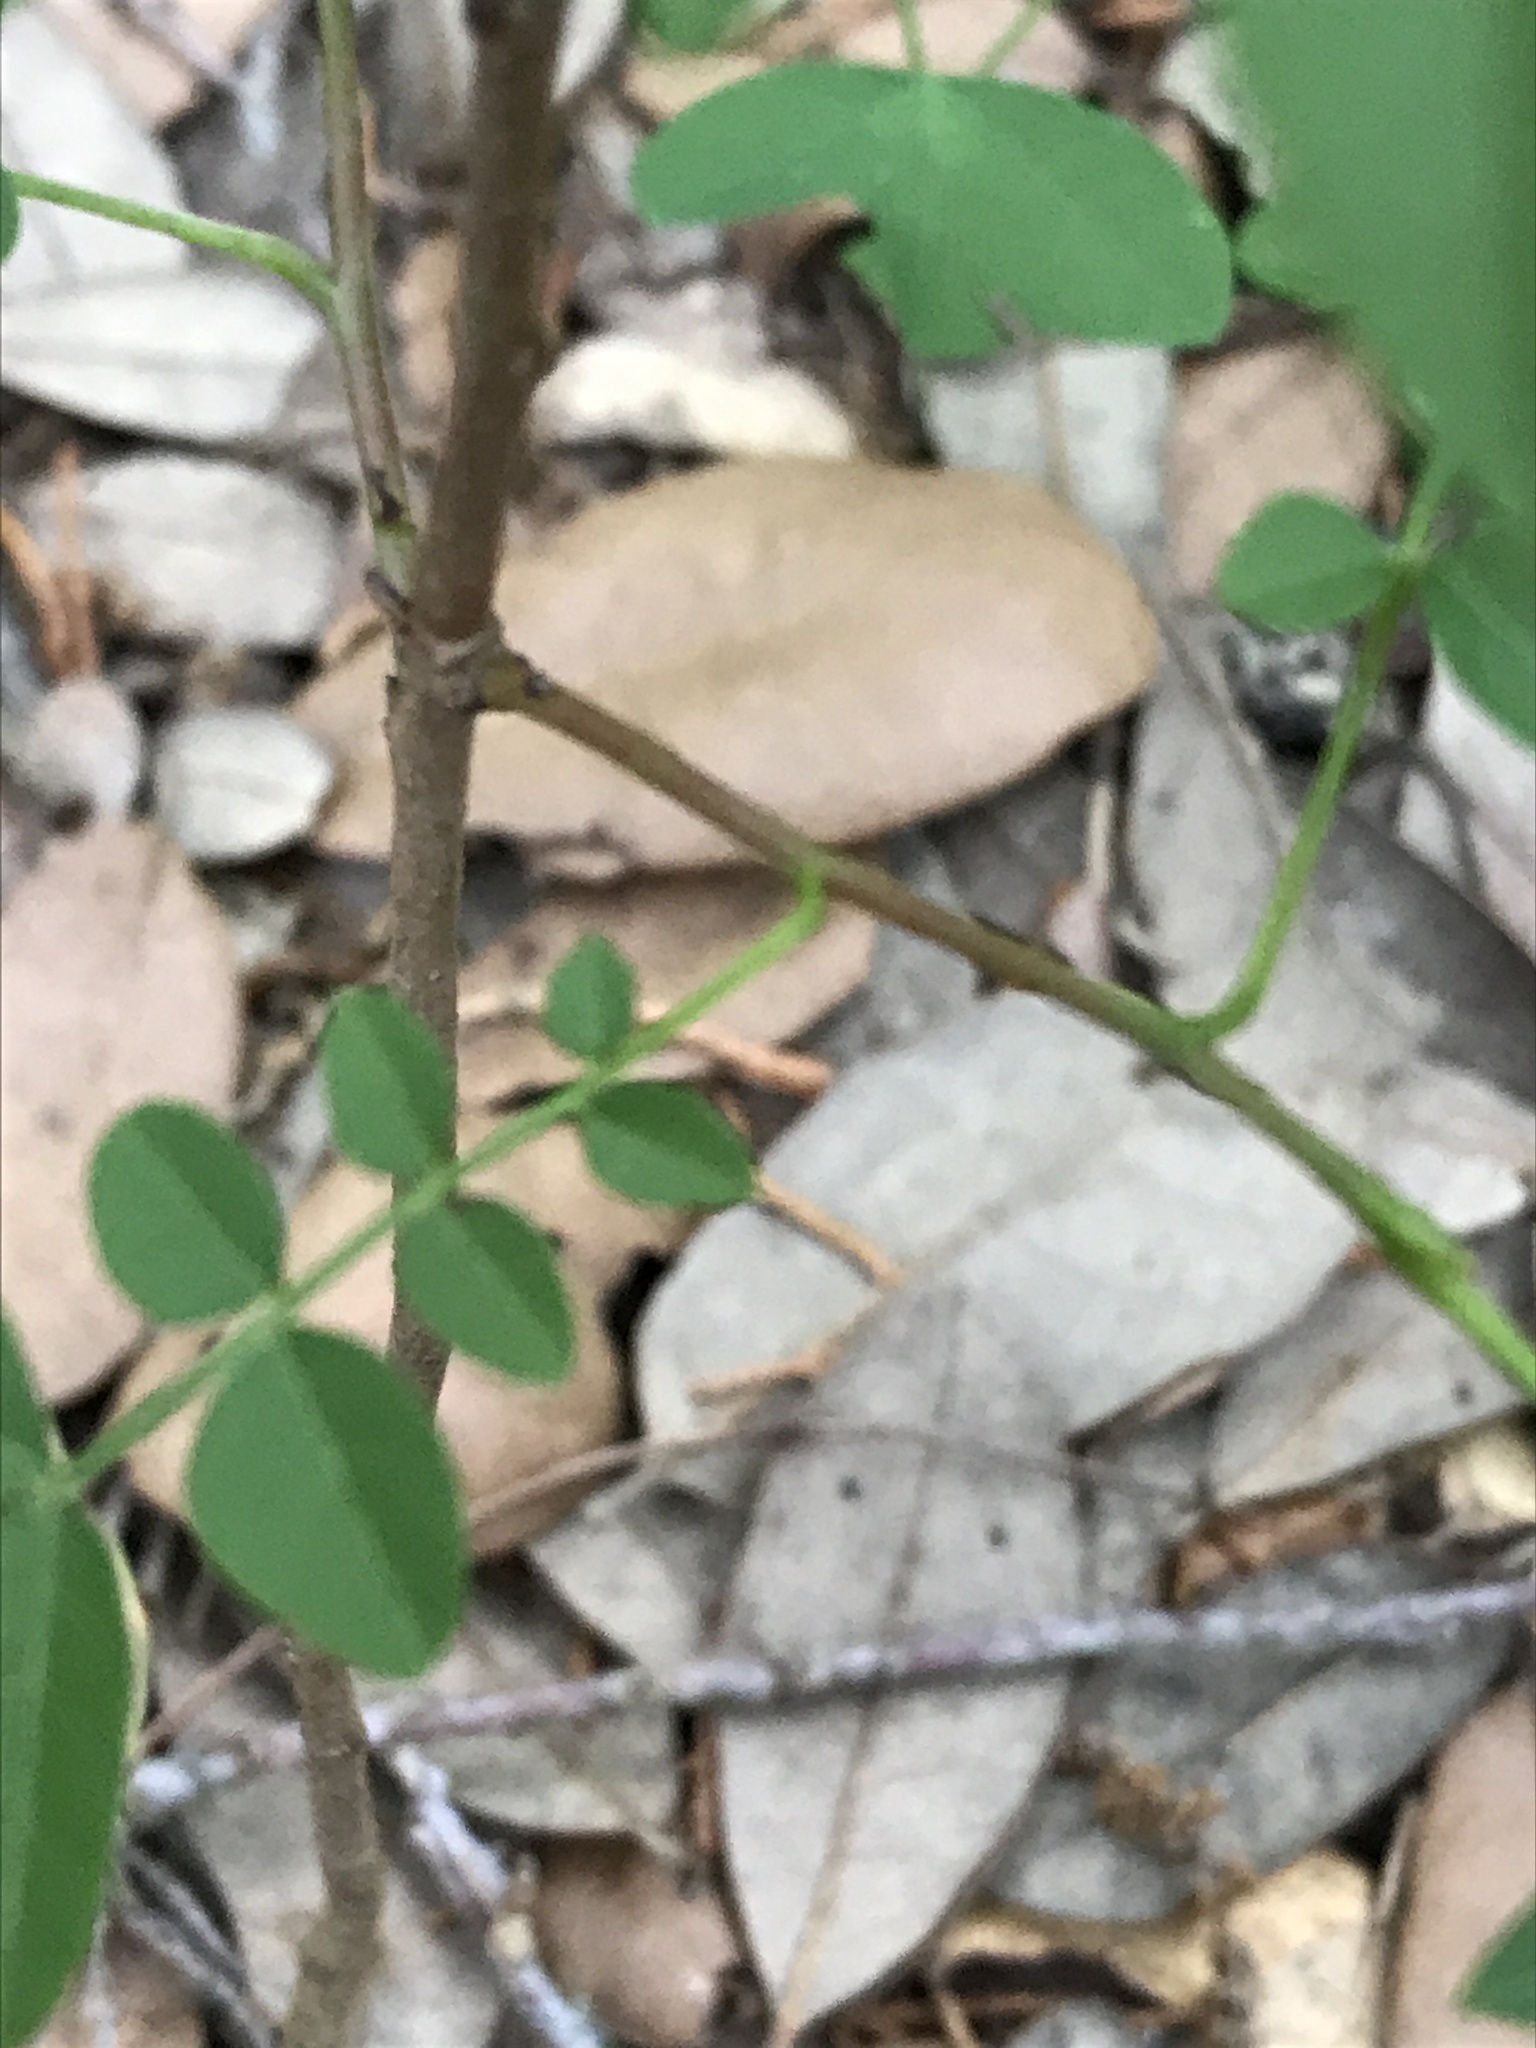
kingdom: Plantae
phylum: Tracheophyta
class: Magnoliopsida
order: Sapindales
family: Anacardiaceae
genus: Pistacia
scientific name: Pistacia chinensis
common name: Chinese pistache
